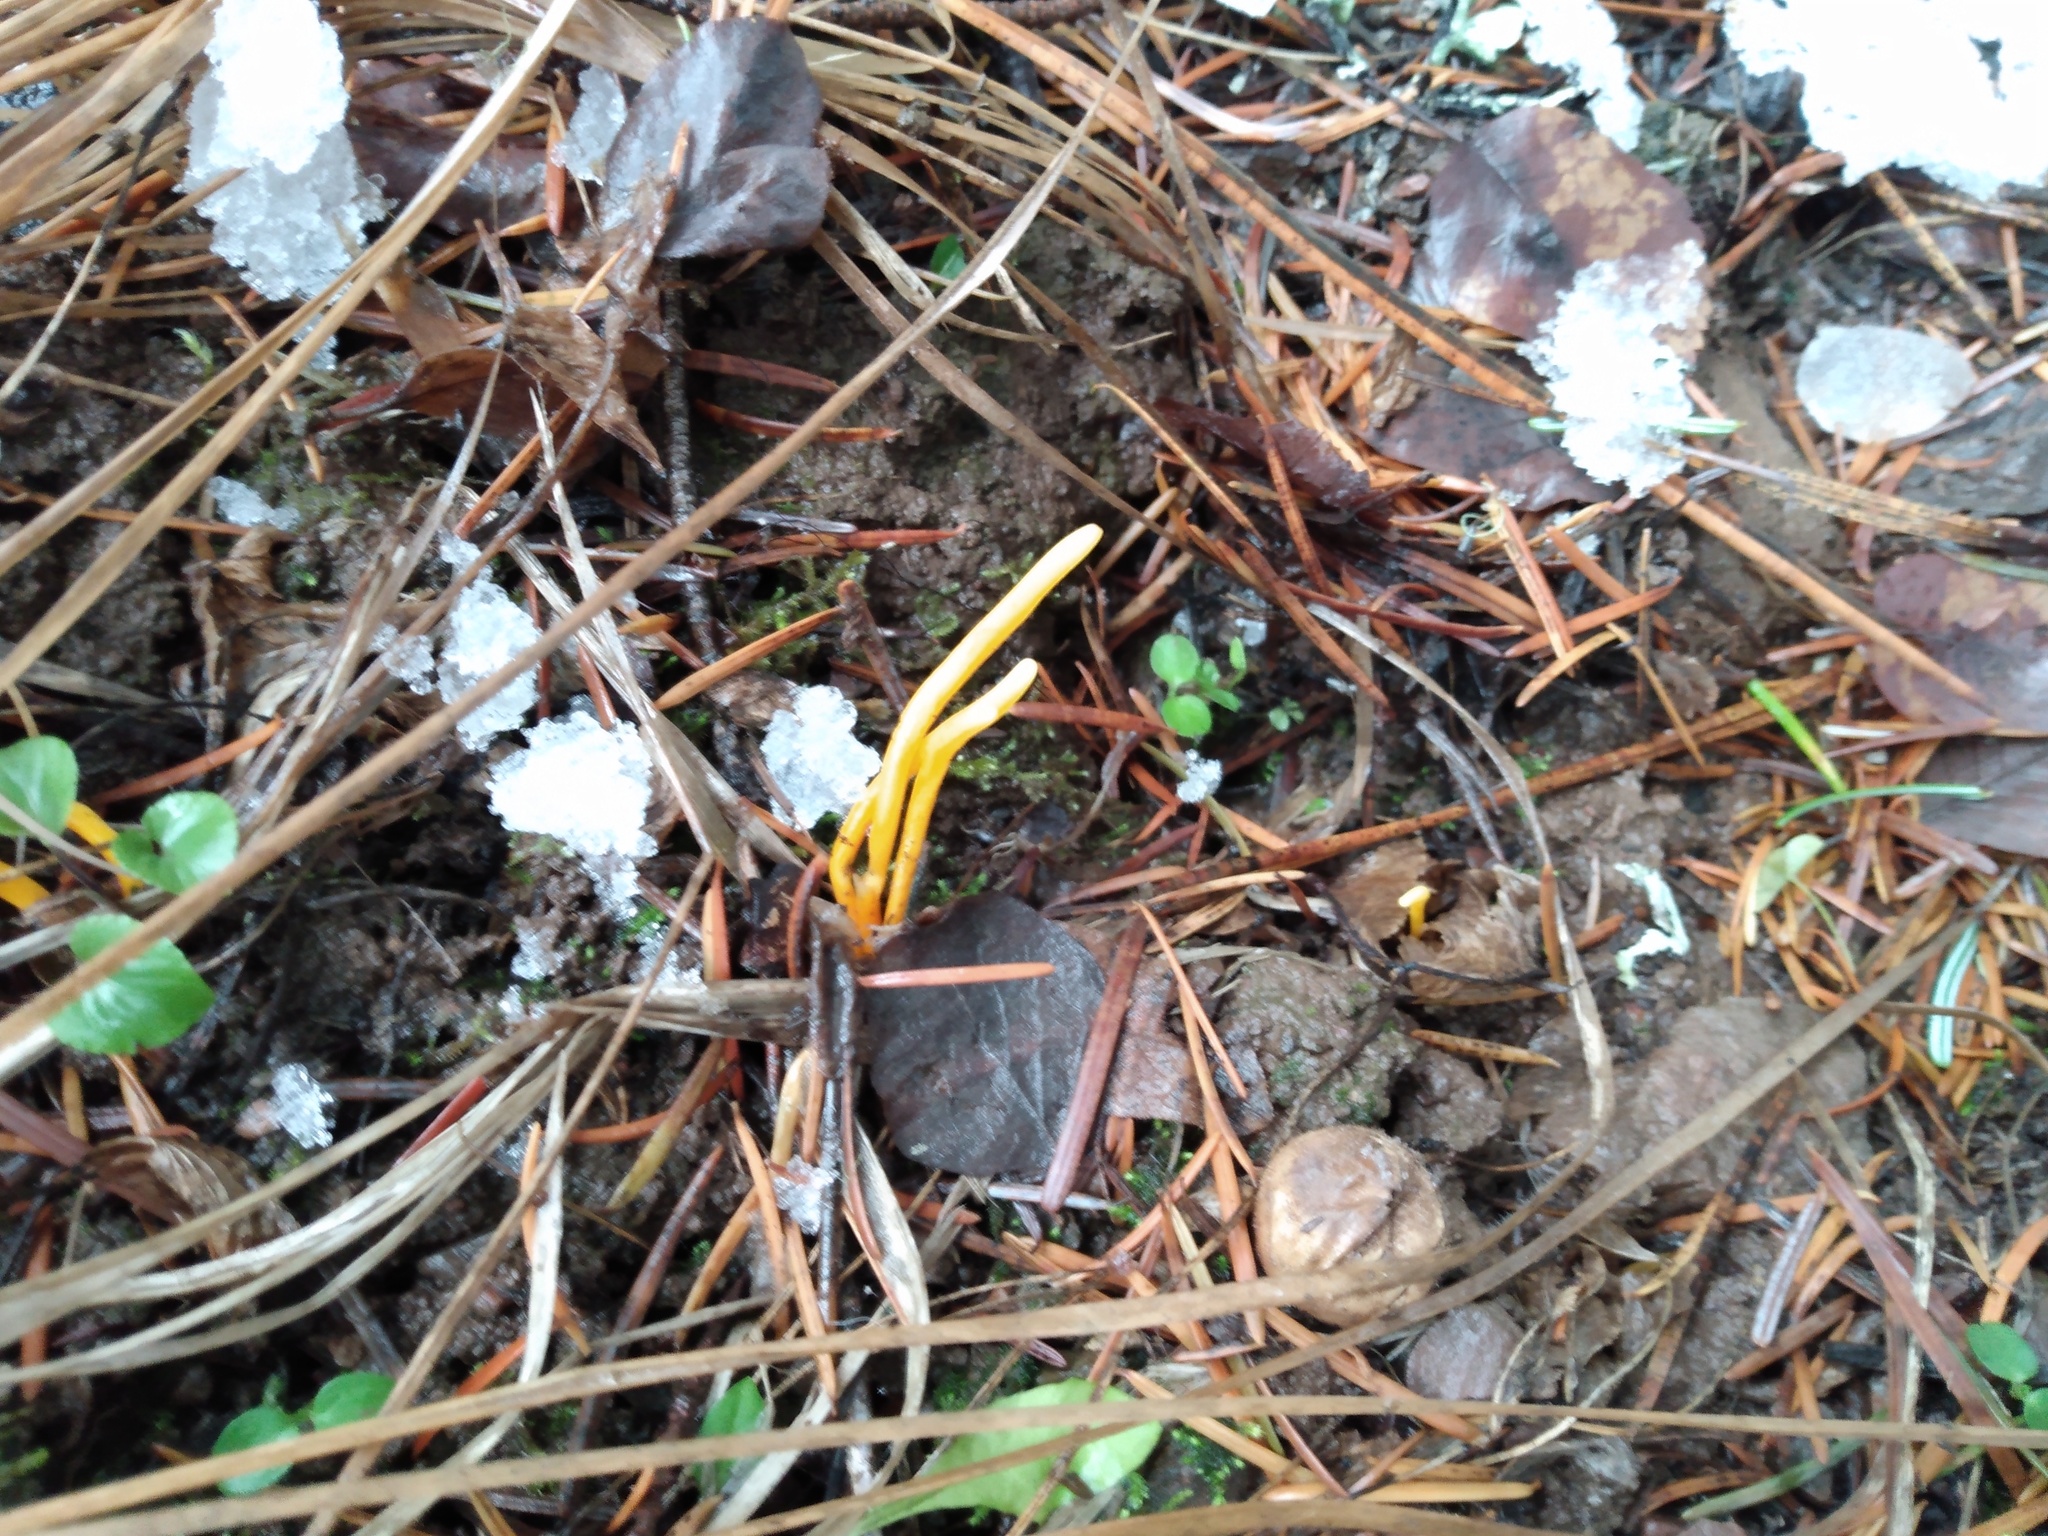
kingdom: Fungi
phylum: Basidiomycota
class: Agaricomycetes
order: Agaricales
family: Clavariaceae
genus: Clavulinopsis
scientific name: Clavulinopsis laeticolor
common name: Handsome club
